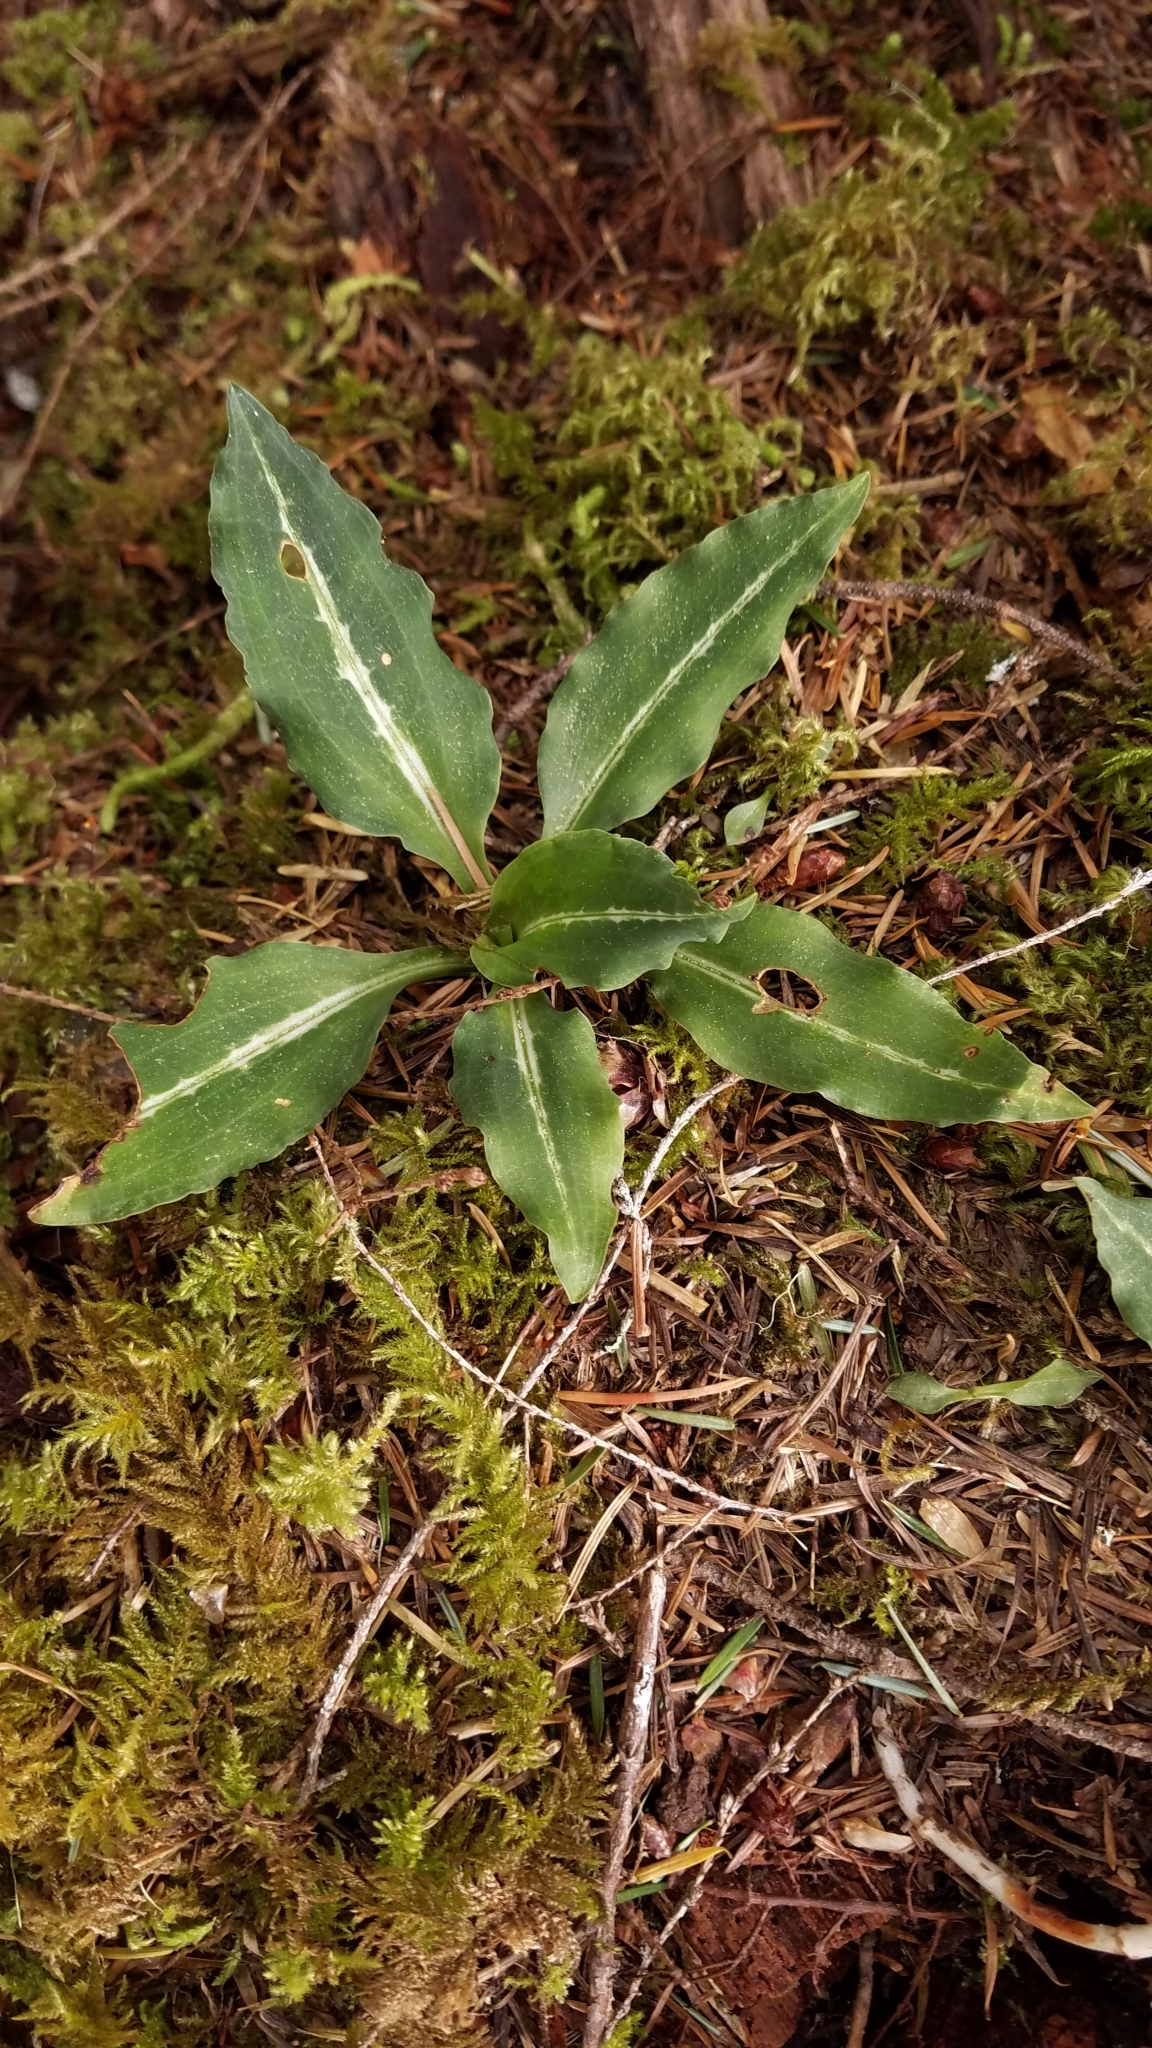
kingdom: Plantae
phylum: Tracheophyta
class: Liliopsida
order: Asparagales
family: Orchidaceae
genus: Goodyera
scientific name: Goodyera oblongifolia
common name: Giant rattlesnake-plantain
